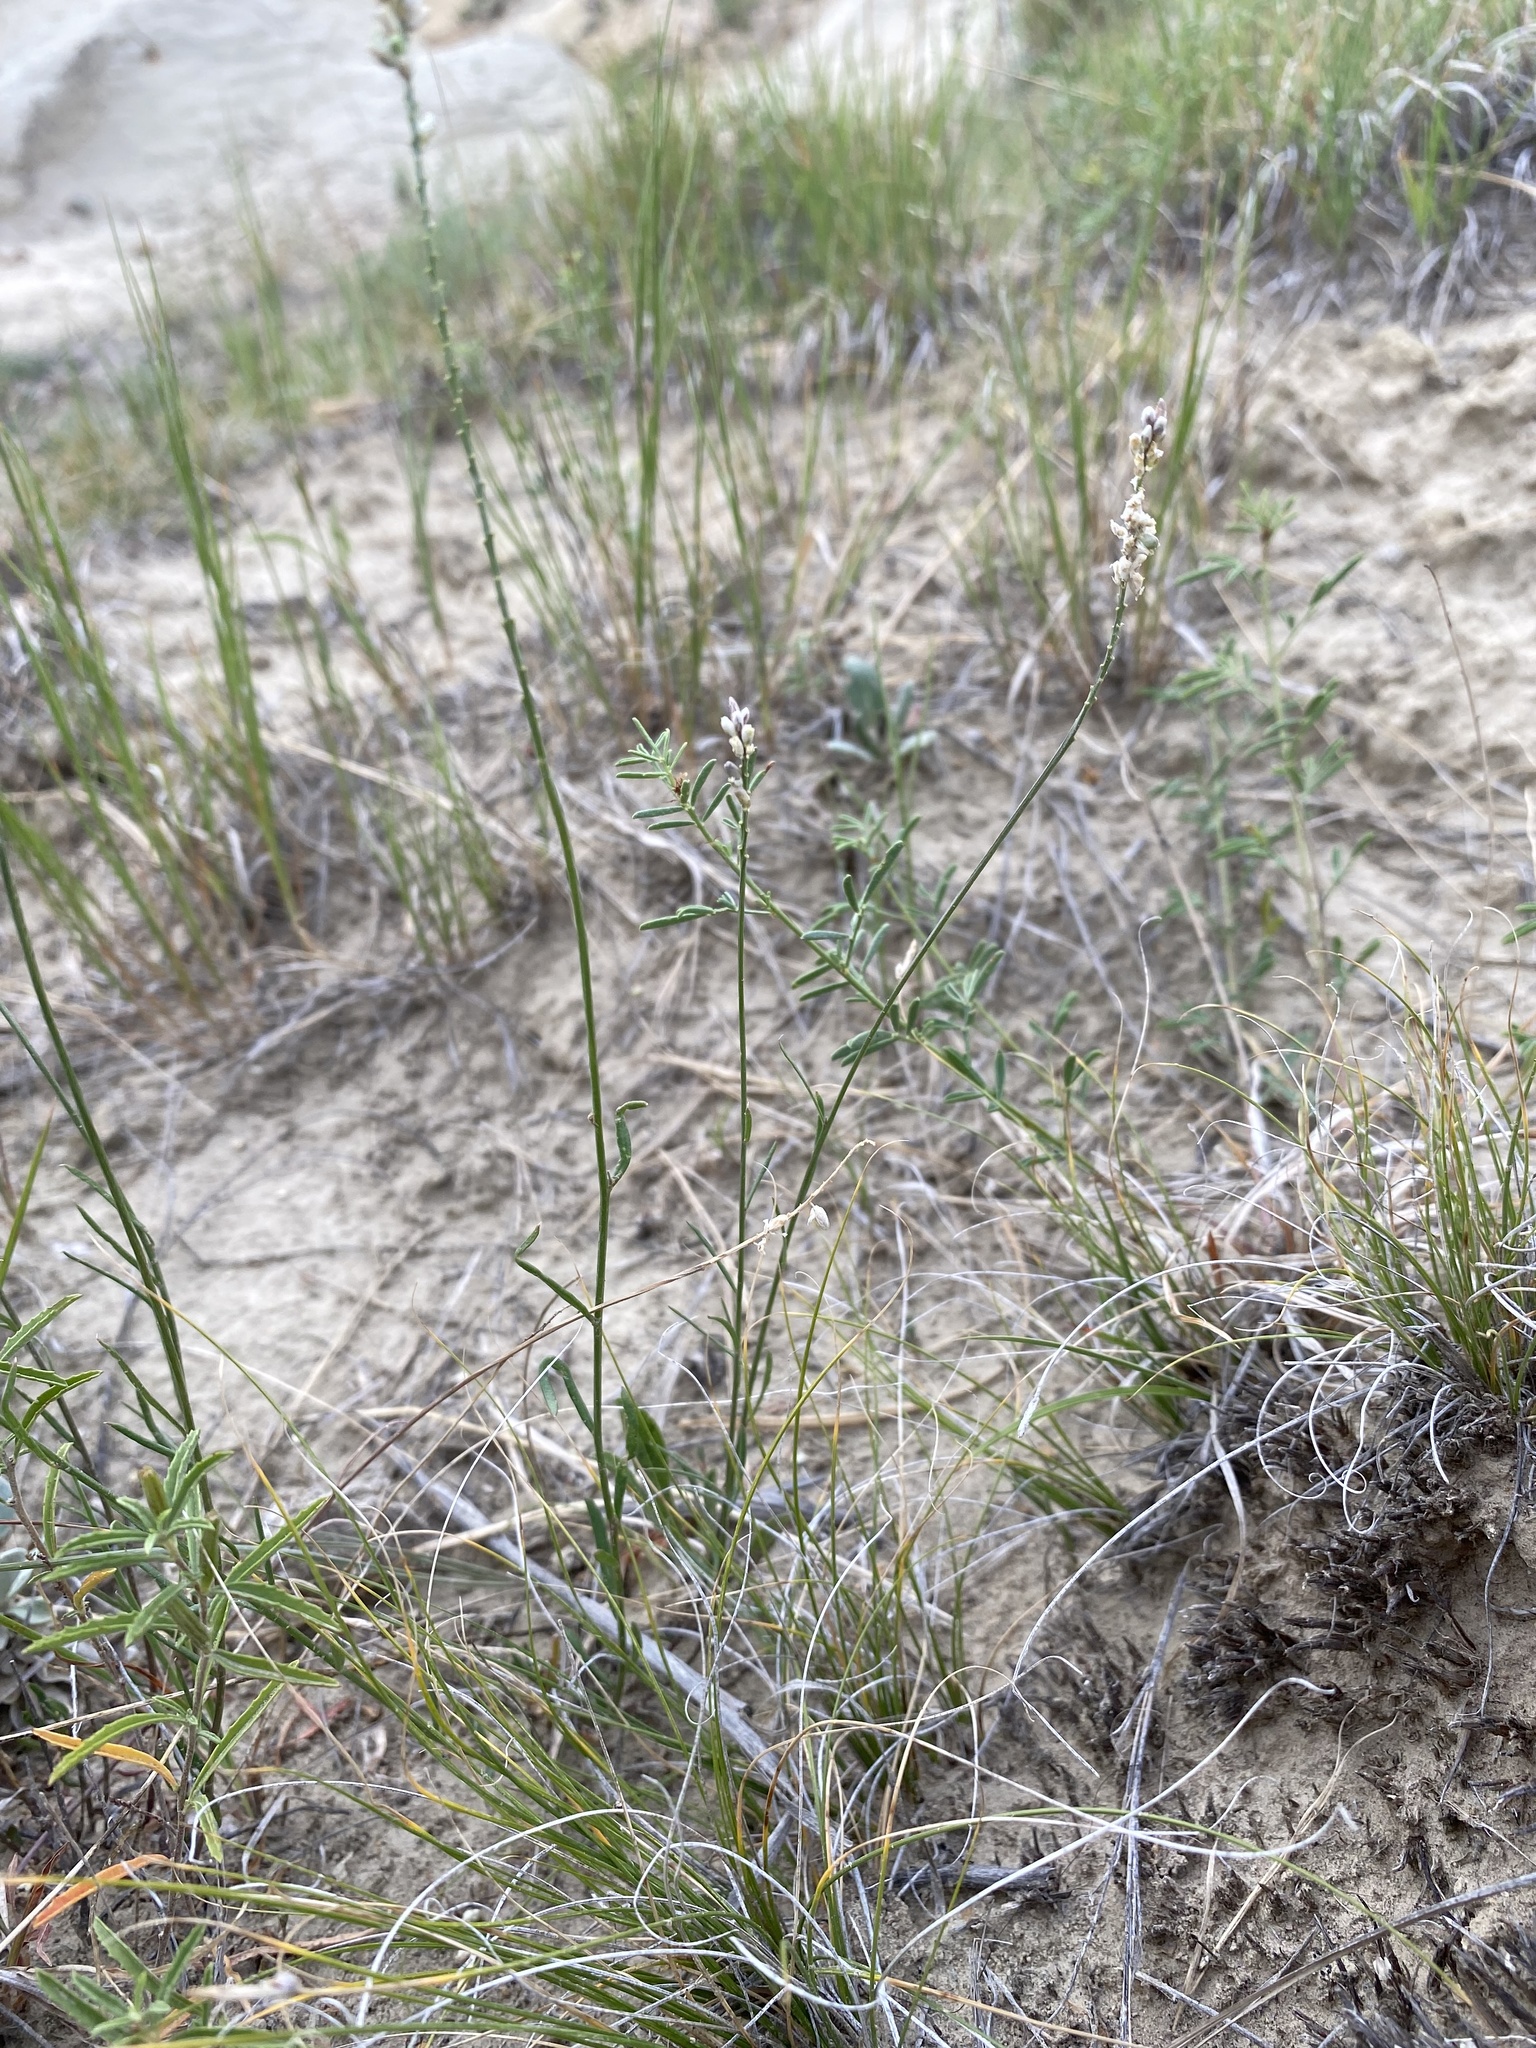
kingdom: Plantae
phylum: Tracheophyta
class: Magnoliopsida
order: Fabales
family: Polygalaceae
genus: Polygala
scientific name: Polygala alba
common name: White milkwort
